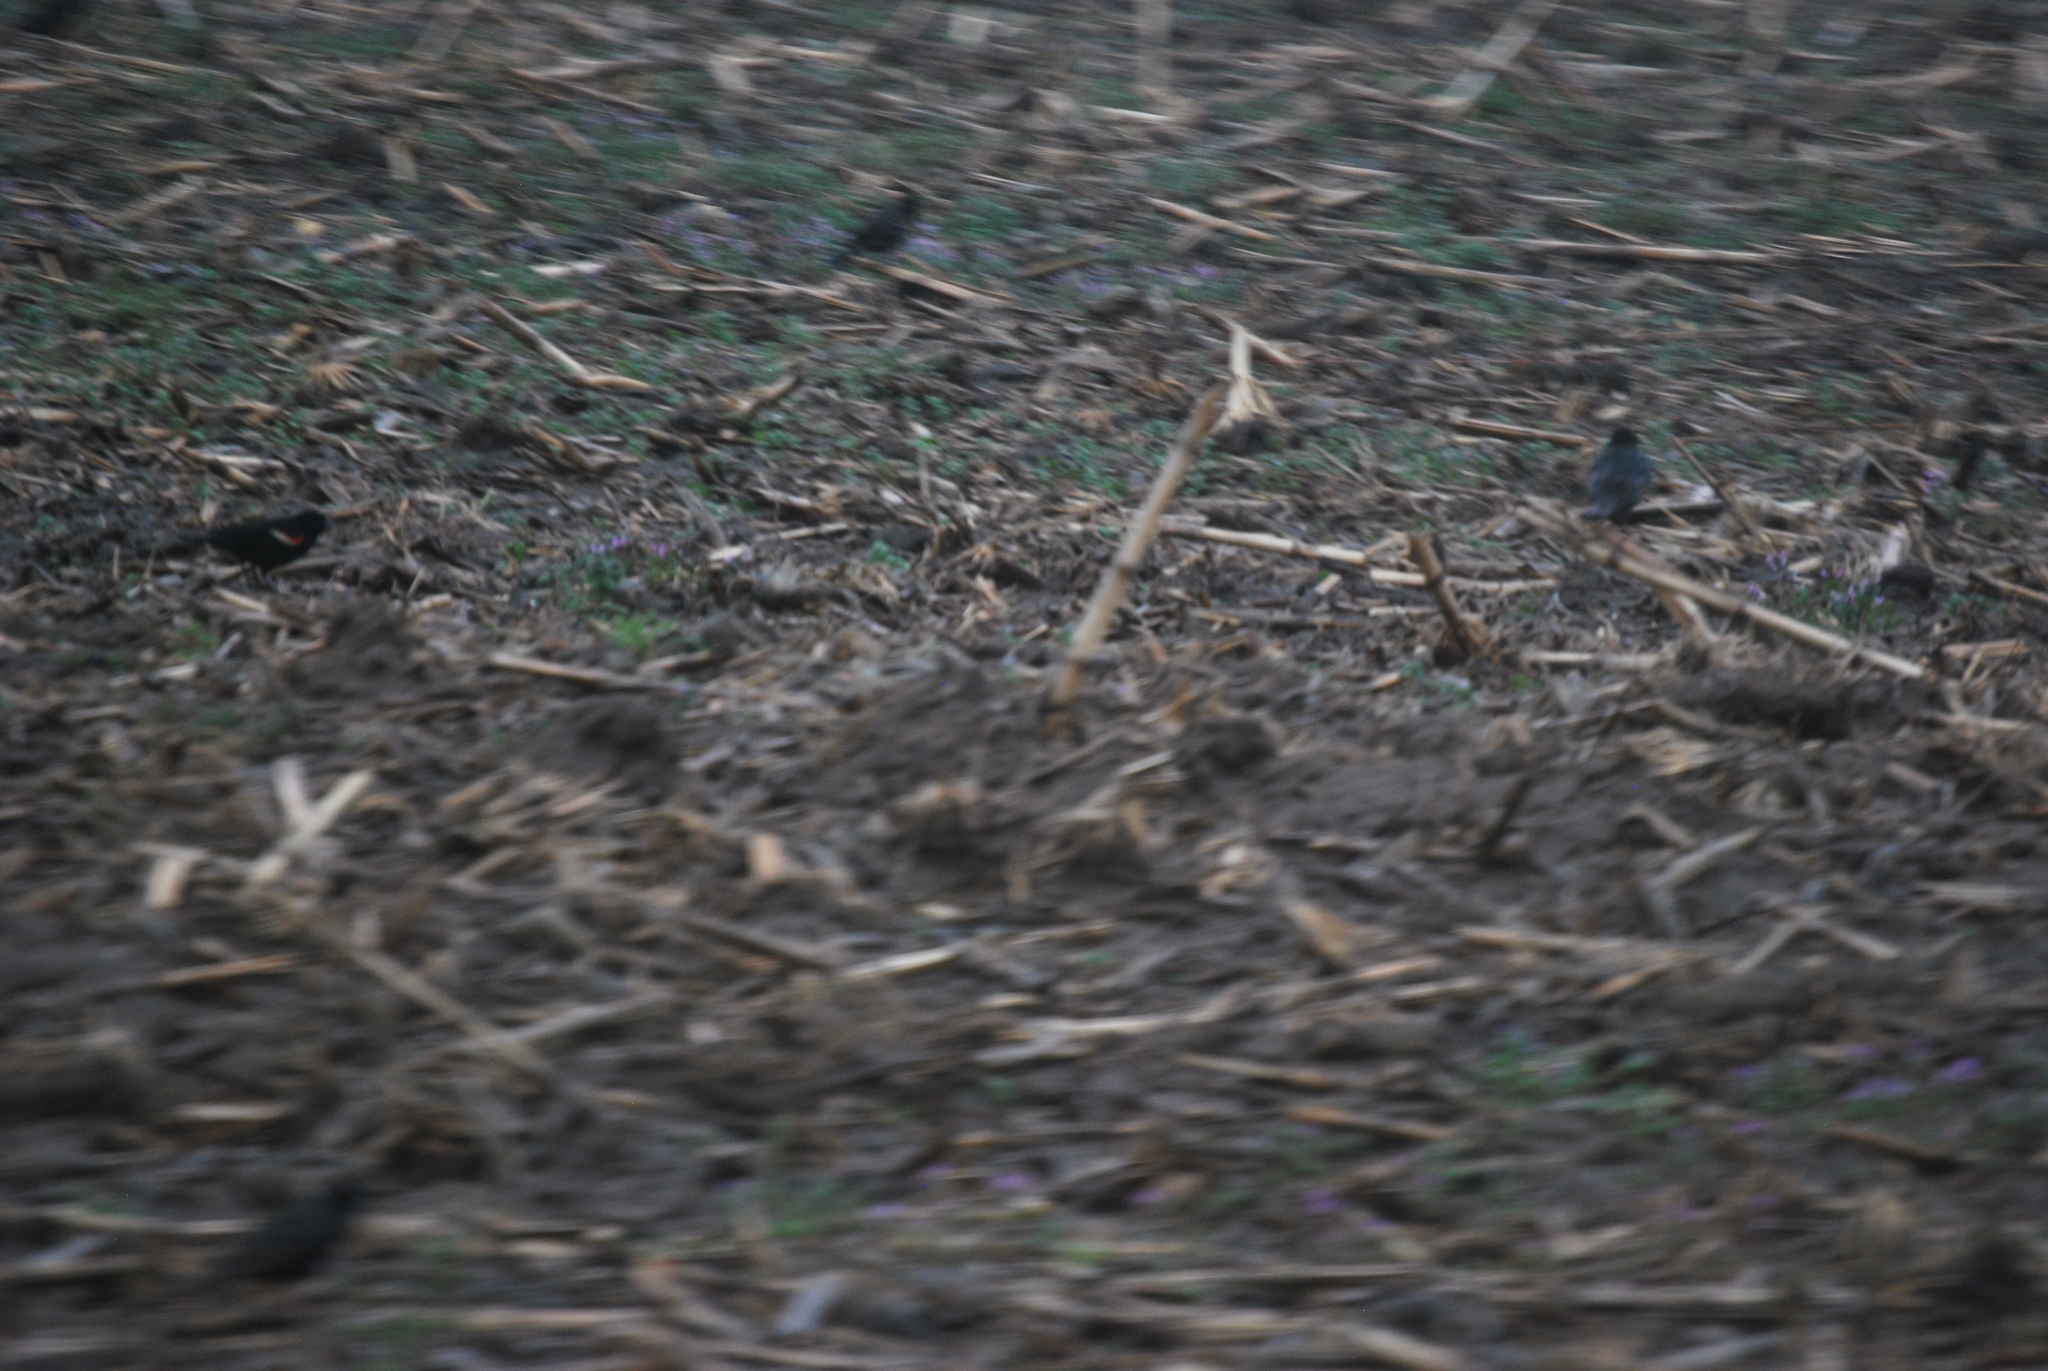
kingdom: Animalia
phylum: Chordata
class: Aves
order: Passeriformes
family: Icteridae
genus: Agelaius
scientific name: Agelaius phoeniceus
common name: Red-winged blackbird
